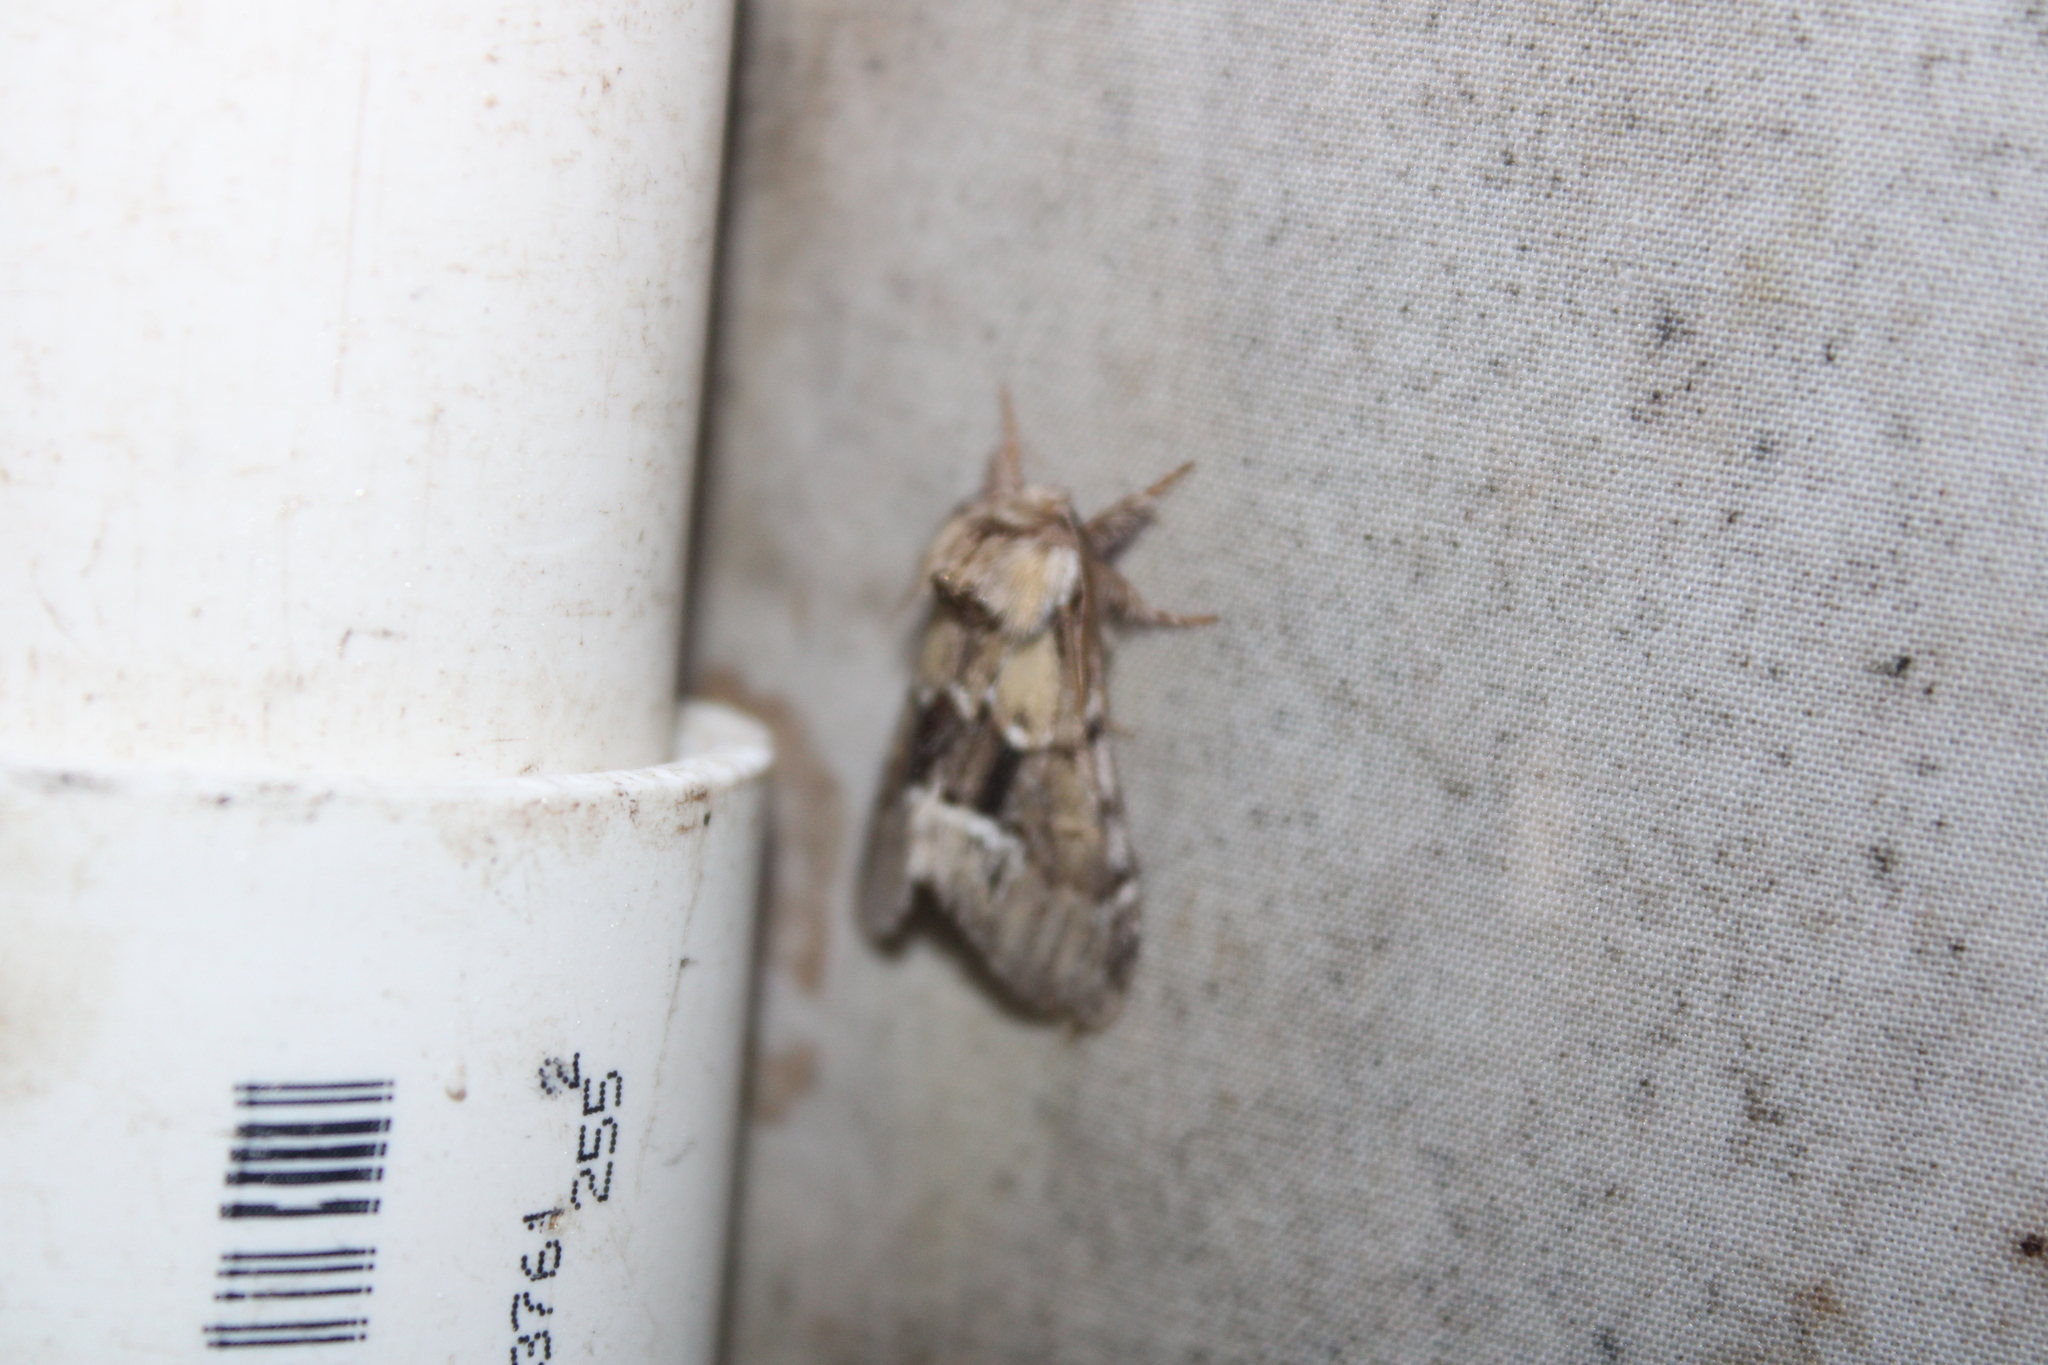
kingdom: Animalia
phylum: Arthropoda
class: Insecta
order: Lepidoptera
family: Notodontidae
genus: Paraeschra
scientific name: Paraeschra georgica
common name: Georgian prominent
